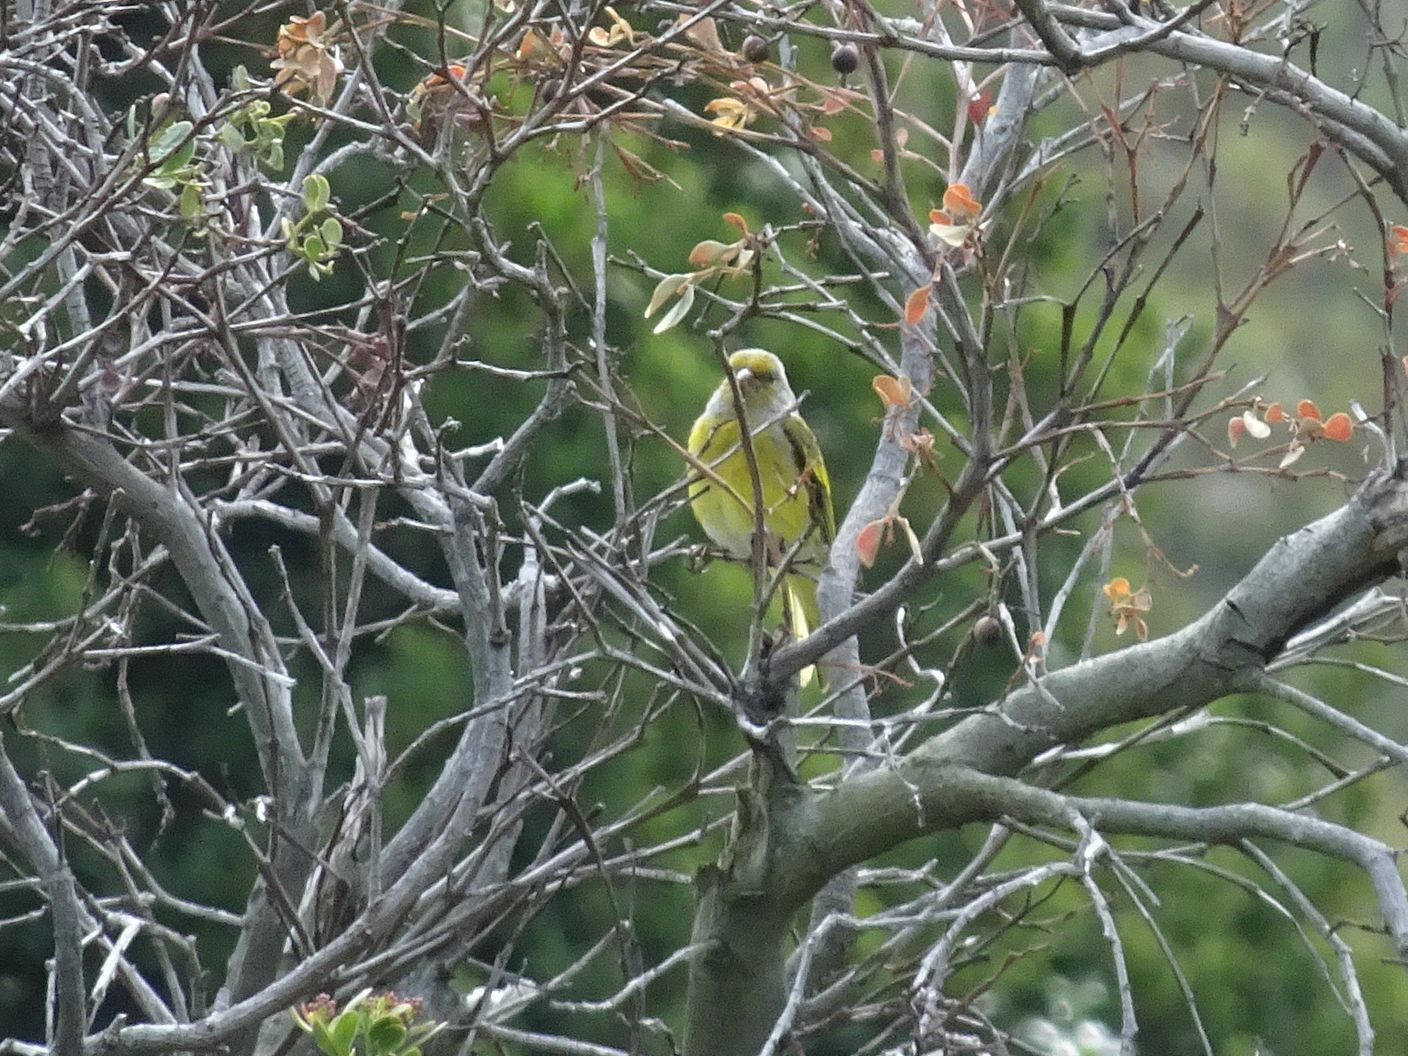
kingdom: Animalia
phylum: Chordata
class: Aves
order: Passeriformes
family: Fringillidae
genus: Serinus
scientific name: Serinus canicollis
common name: Cape canary
